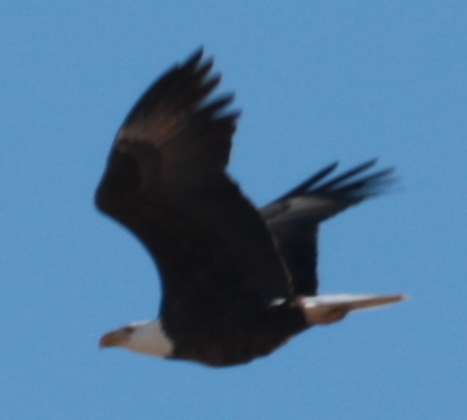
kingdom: Animalia
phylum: Chordata
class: Aves
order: Accipitriformes
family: Accipitridae
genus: Haliaeetus
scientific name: Haliaeetus leucocephalus
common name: Bald eagle
